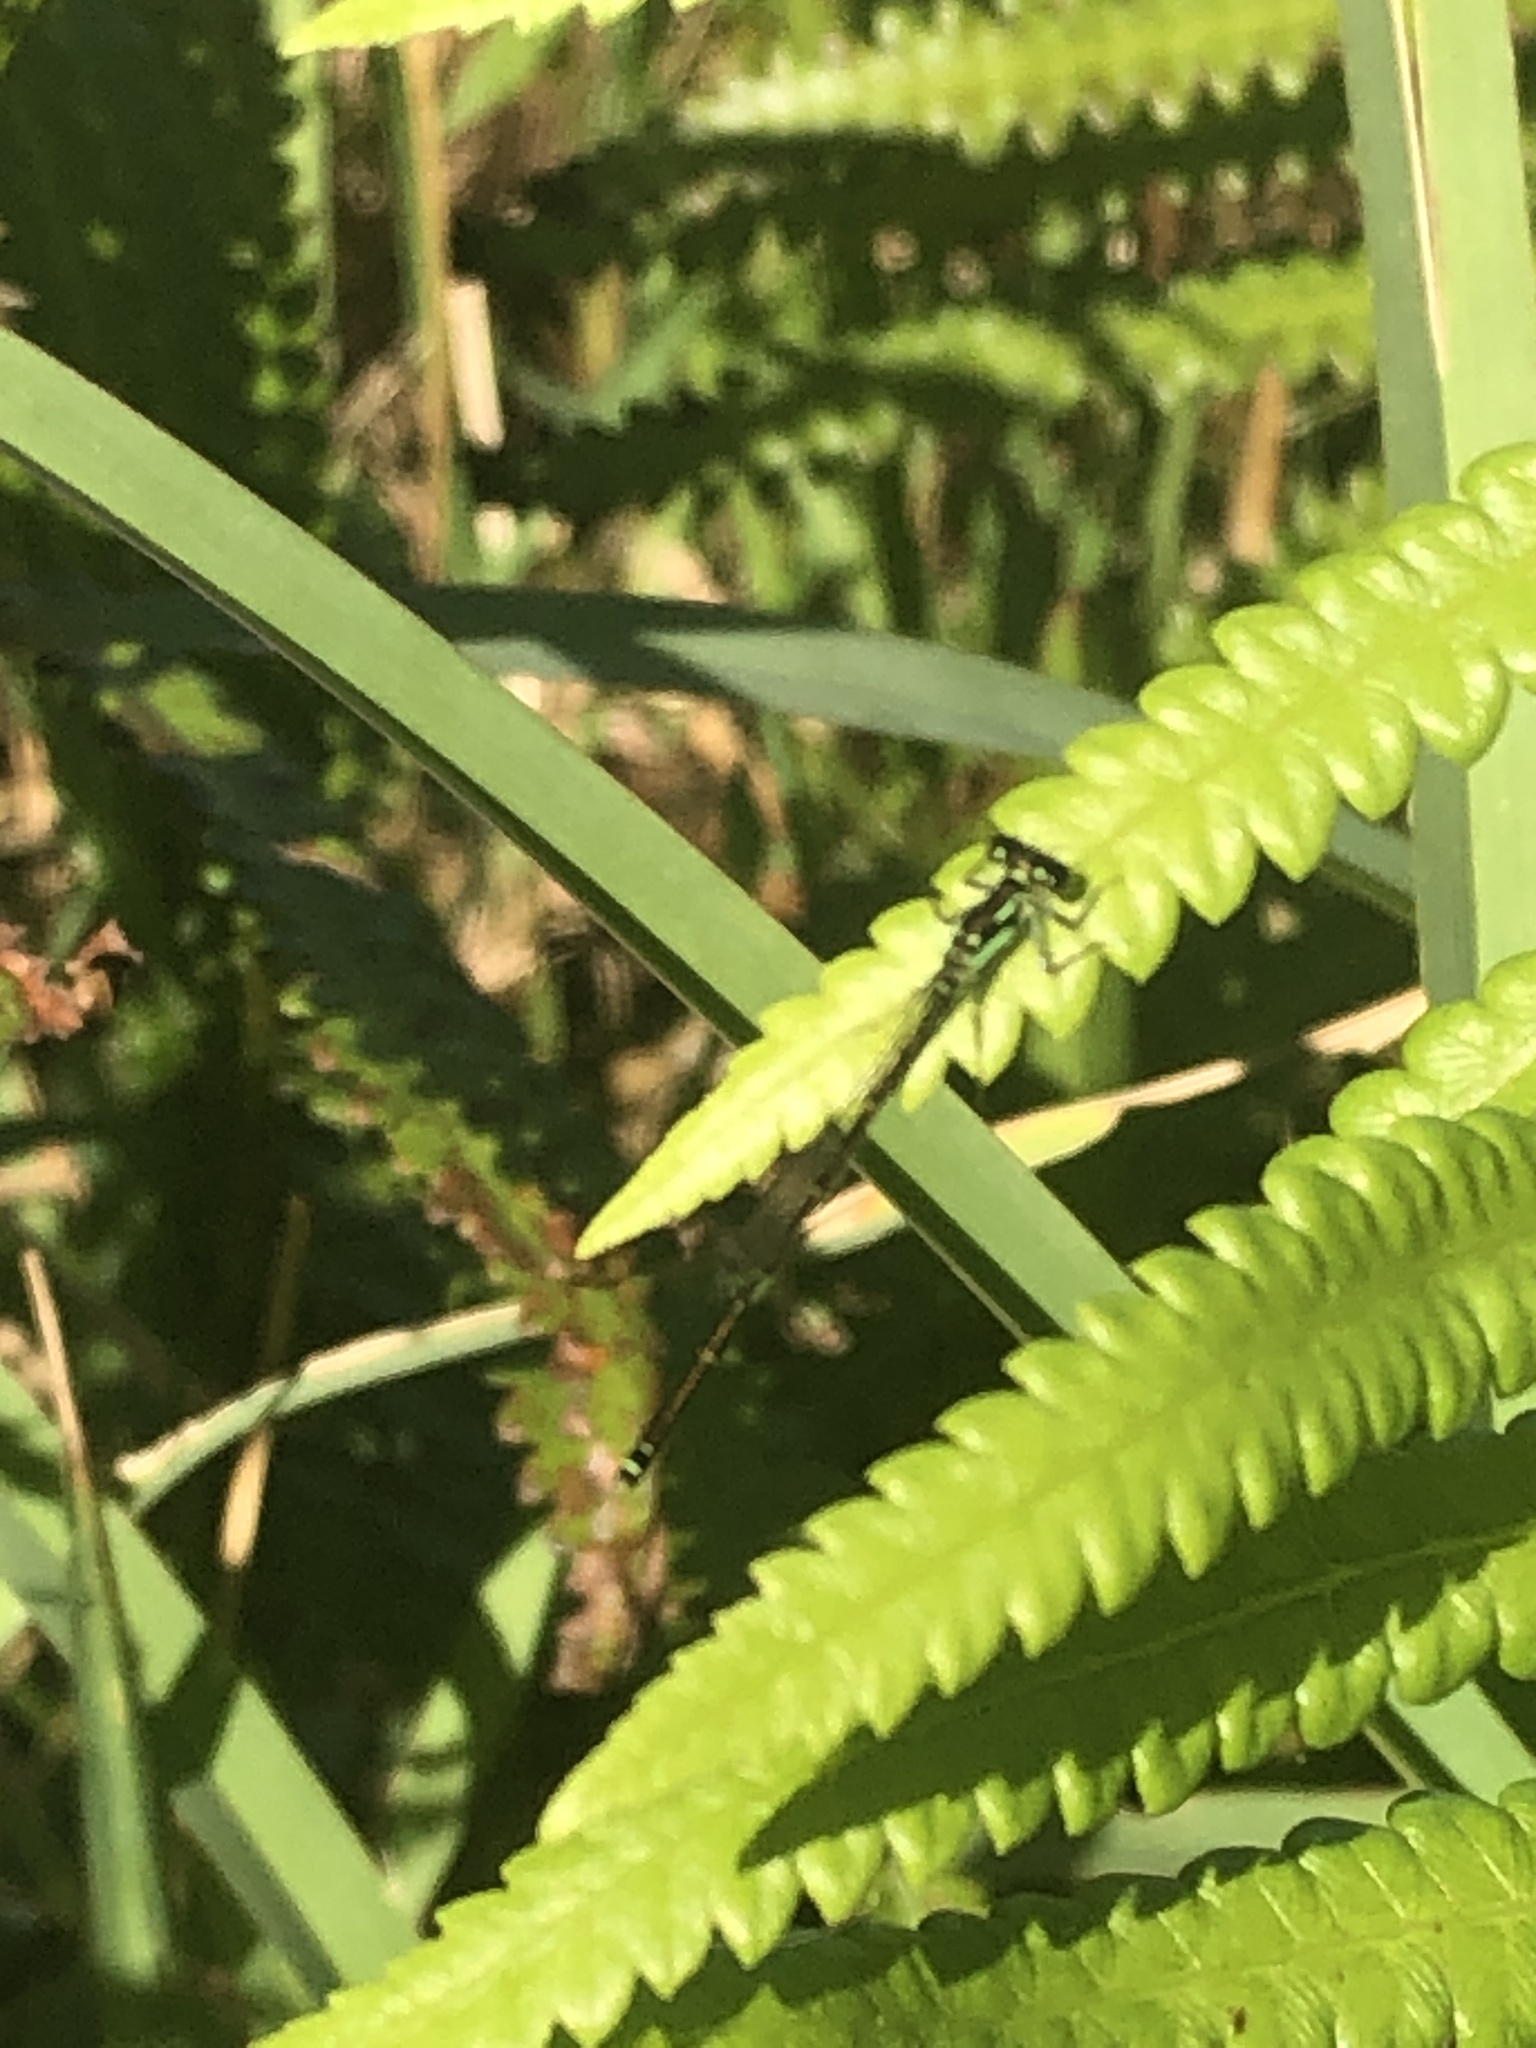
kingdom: Animalia
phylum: Arthropoda
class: Insecta
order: Odonata
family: Coenagrionidae
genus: Ischnura
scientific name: Ischnura posita
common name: Fragile forktail
